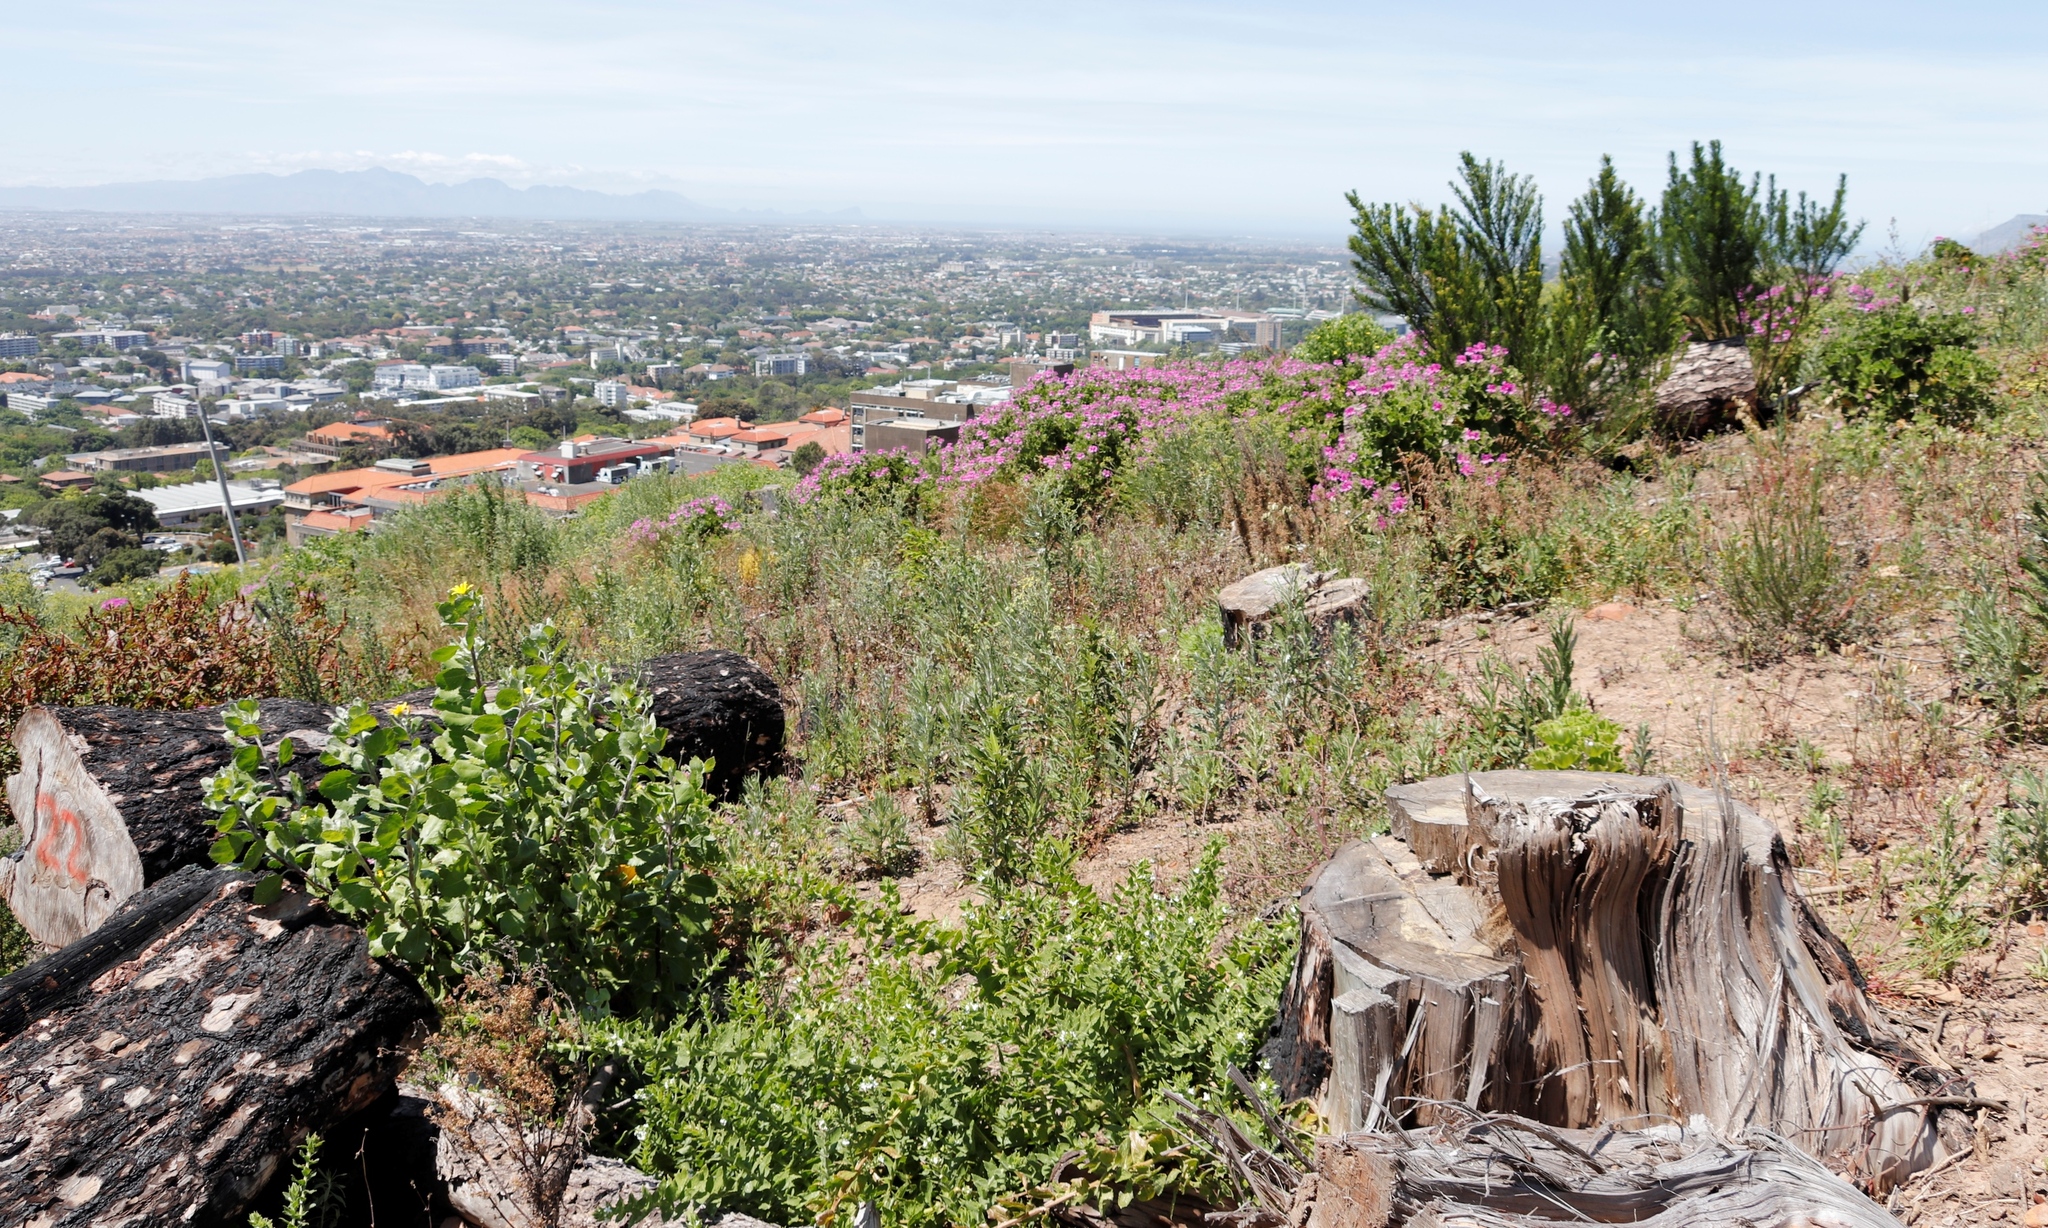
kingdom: Plantae
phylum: Tracheophyta
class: Magnoliopsida
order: Fabales
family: Fabaceae
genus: Psoralea
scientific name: Psoralea pinnata
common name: African scurfpea
